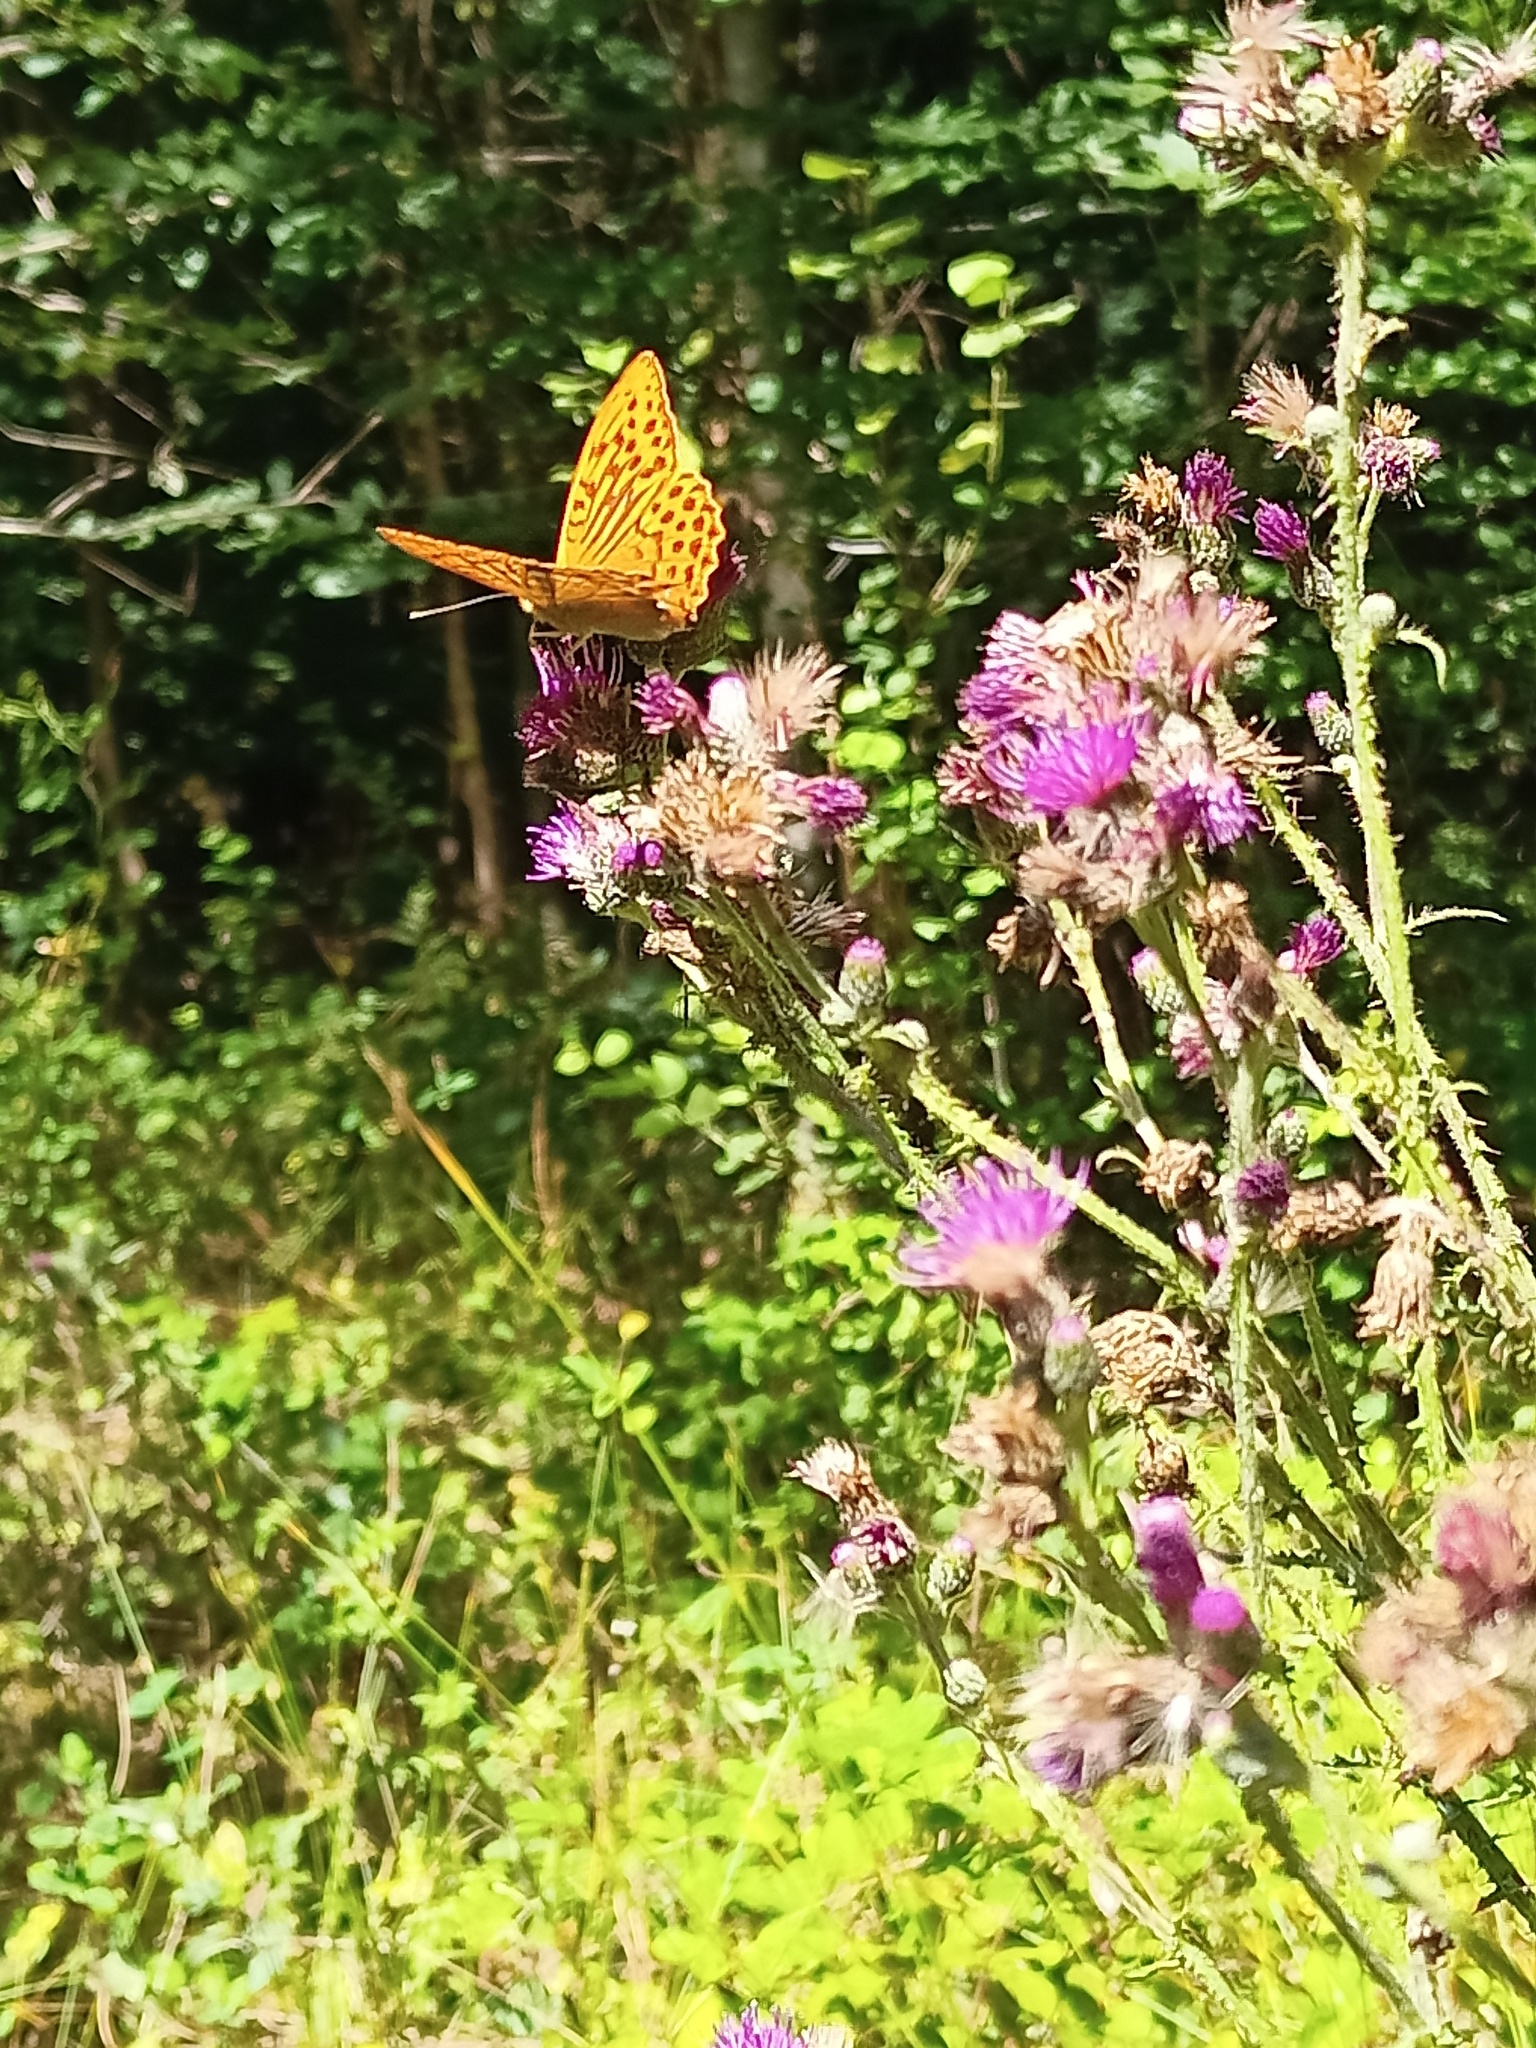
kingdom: Animalia
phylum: Arthropoda
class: Insecta
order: Lepidoptera
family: Nymphalidae
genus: Argynnis
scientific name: Argynnis paphia
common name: Silver-washed fritillary
